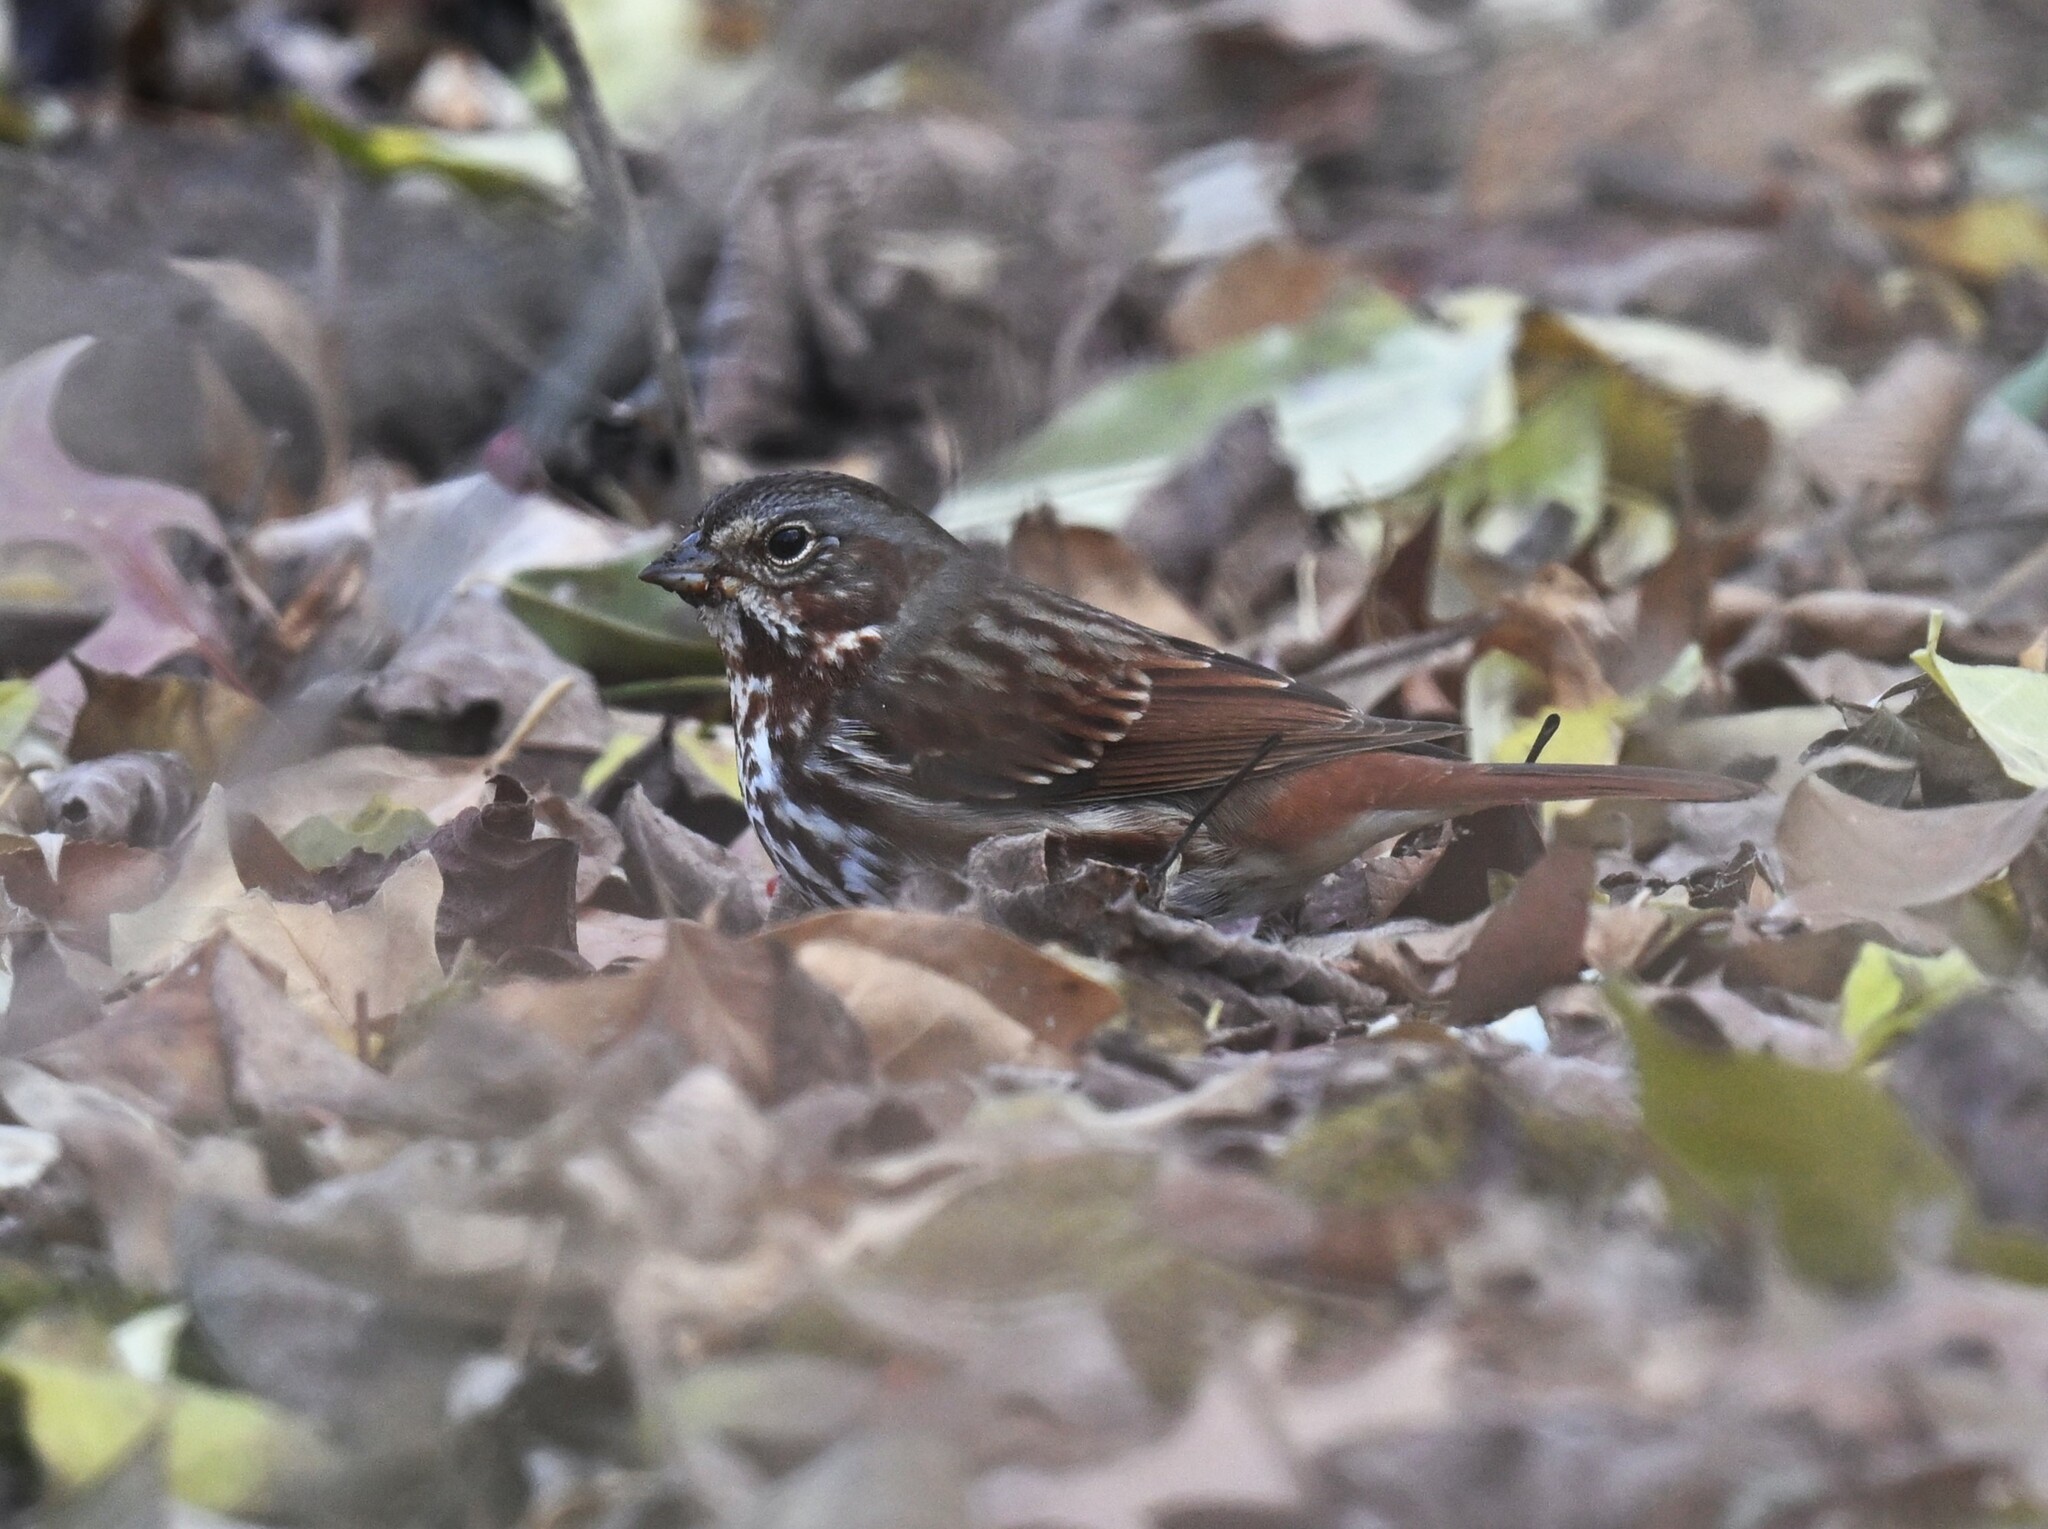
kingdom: Animalia
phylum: Chordata
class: Aves
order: Passeriformes
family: Passerellidae
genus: Passerella
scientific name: Passerella iliaca
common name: Fox sparrow
